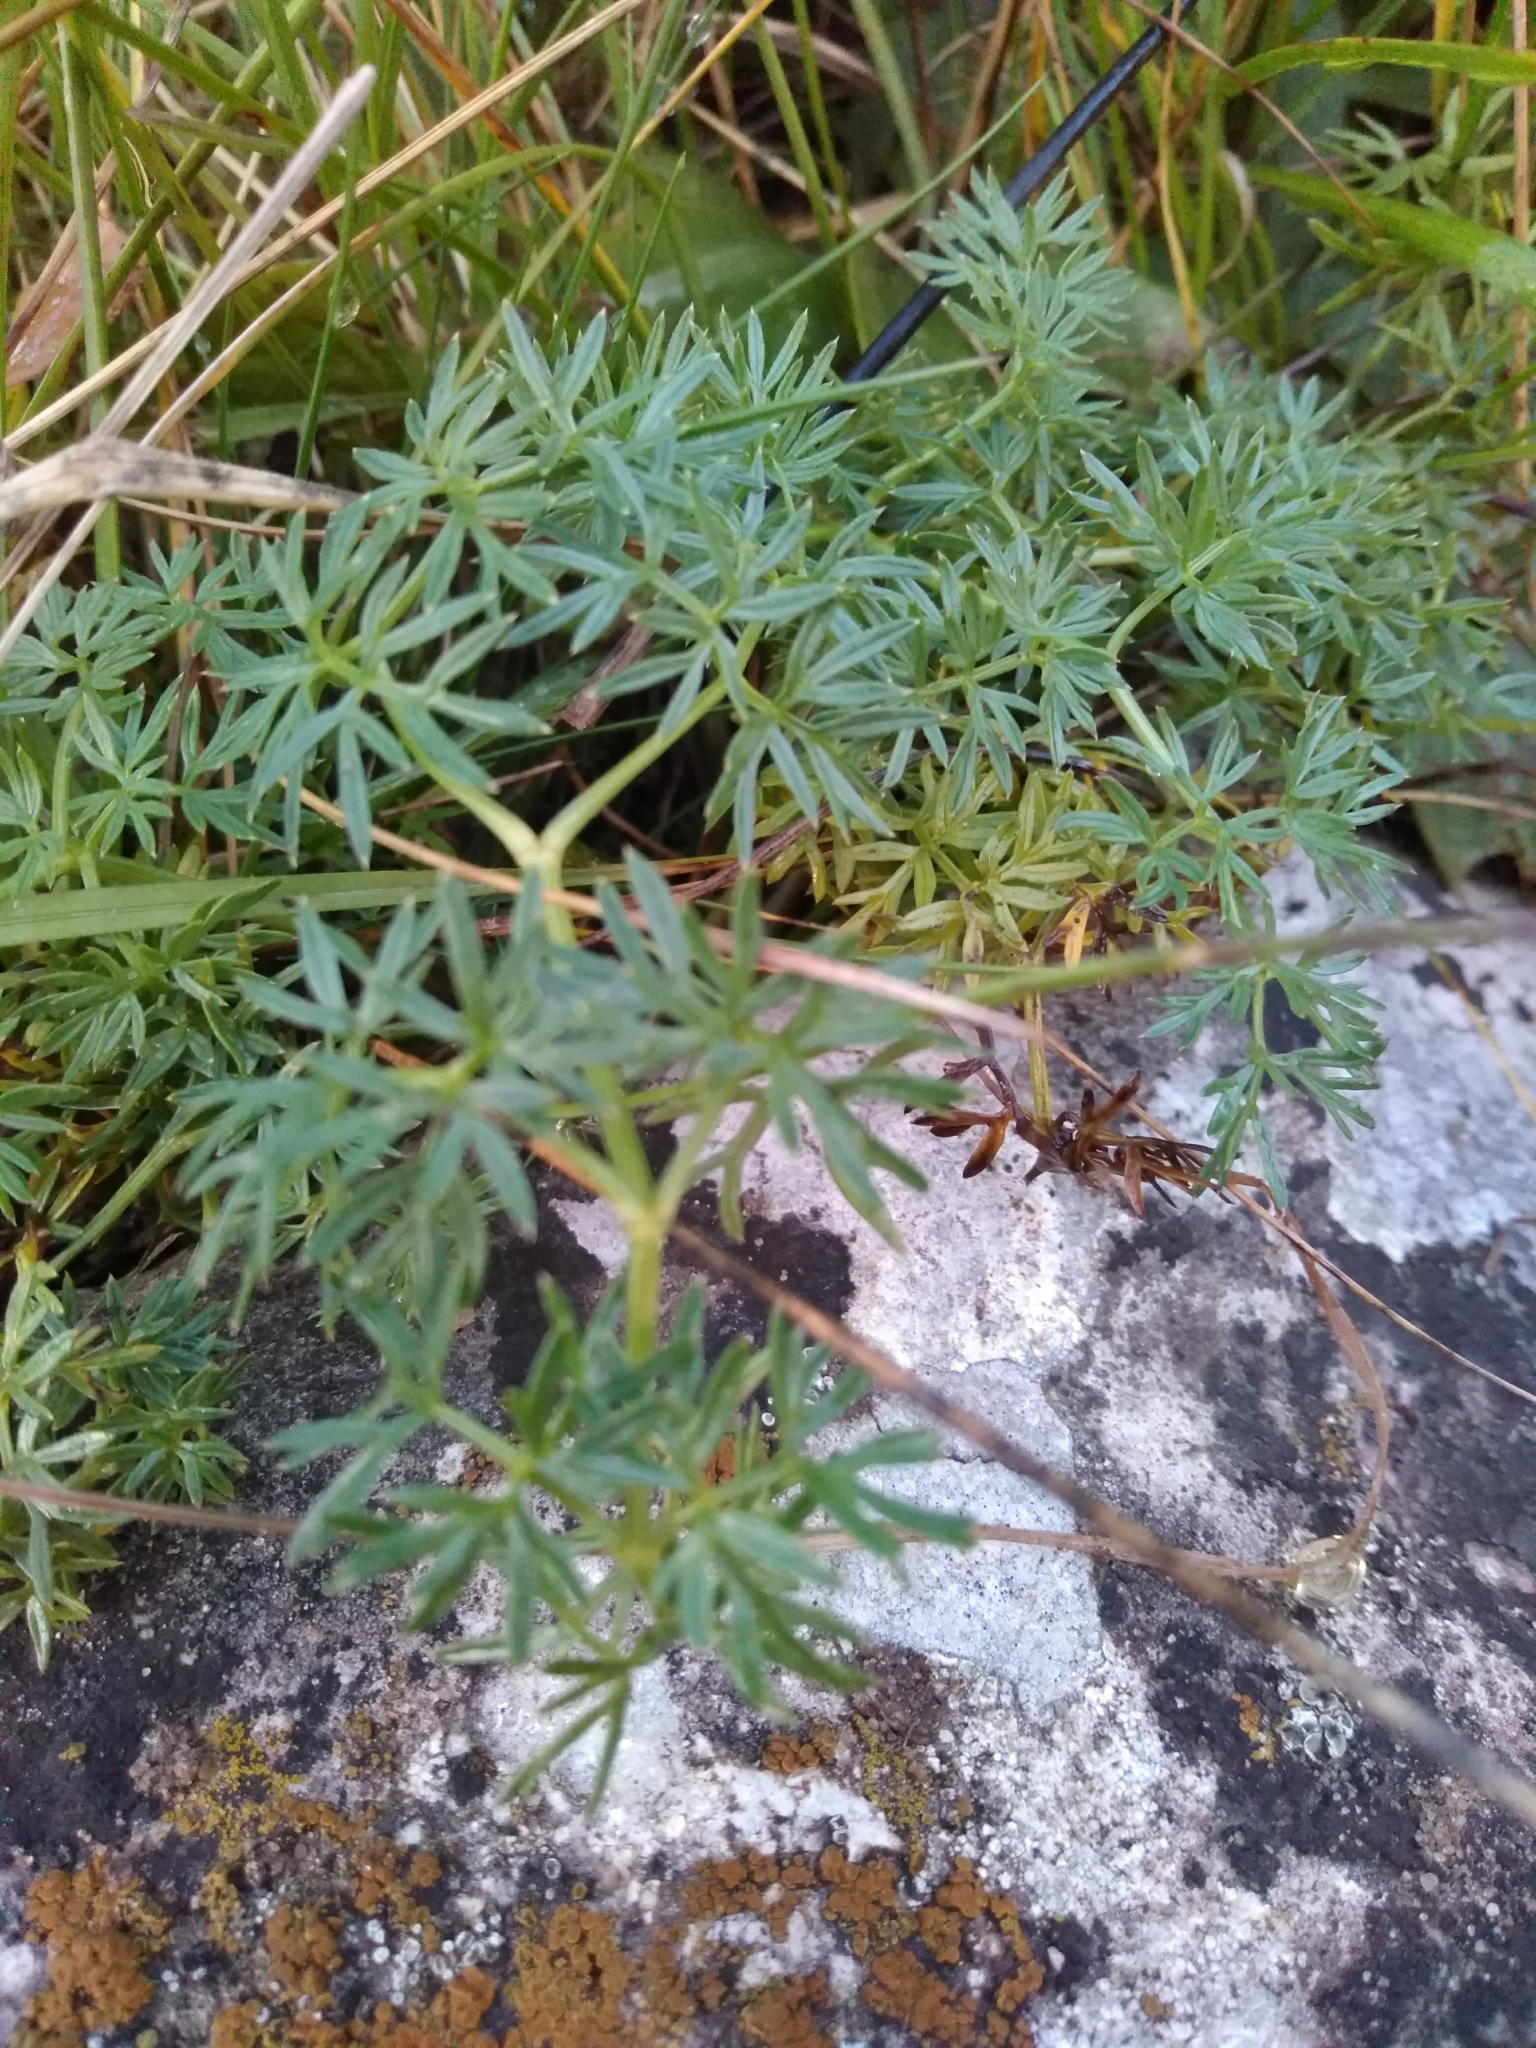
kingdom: Plantae
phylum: Tracheophyta
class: Magnoliopsida
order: Apiales
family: Apiaceae
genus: Lomatocarum
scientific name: Lomatocarum alpinum
